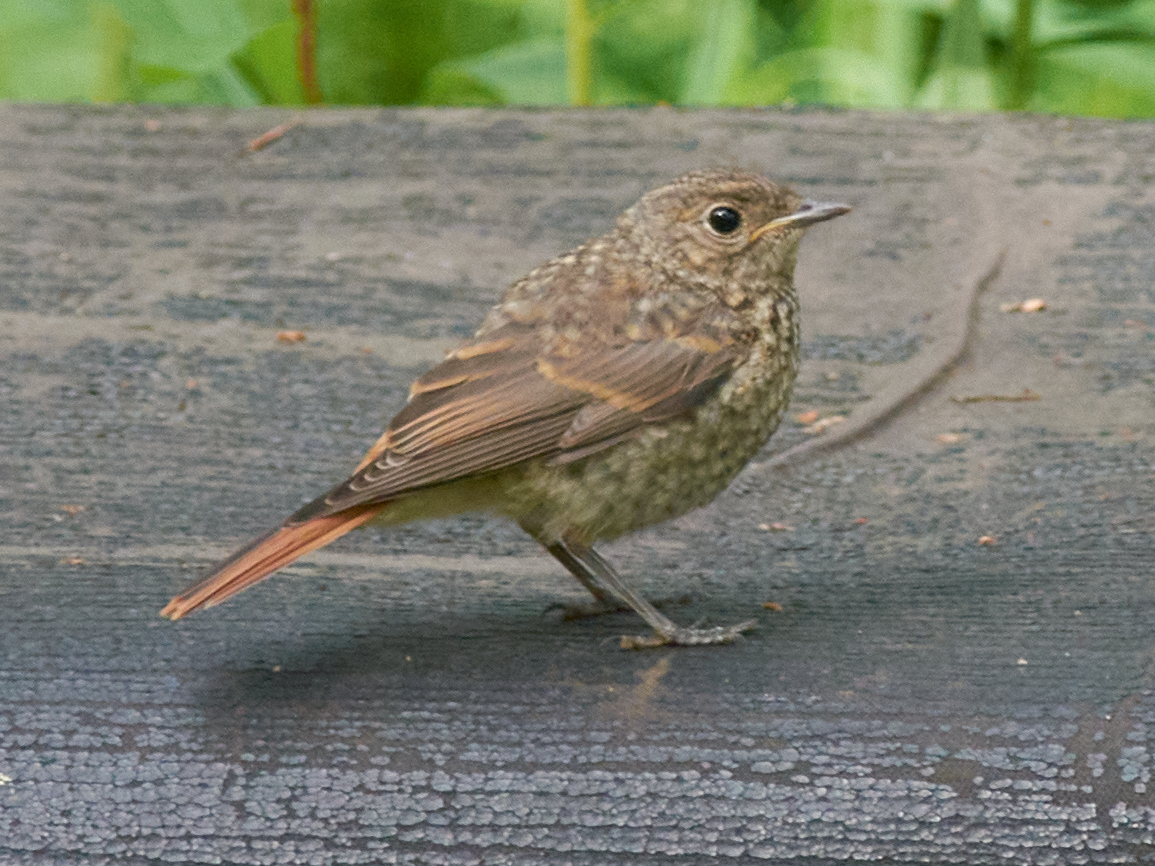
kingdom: Animalia
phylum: Chordata
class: Aves
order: Passeriformes
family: Muscicapidae
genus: Phoenicurus
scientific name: Phoenicurus phoenicurus
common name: Common redstart
